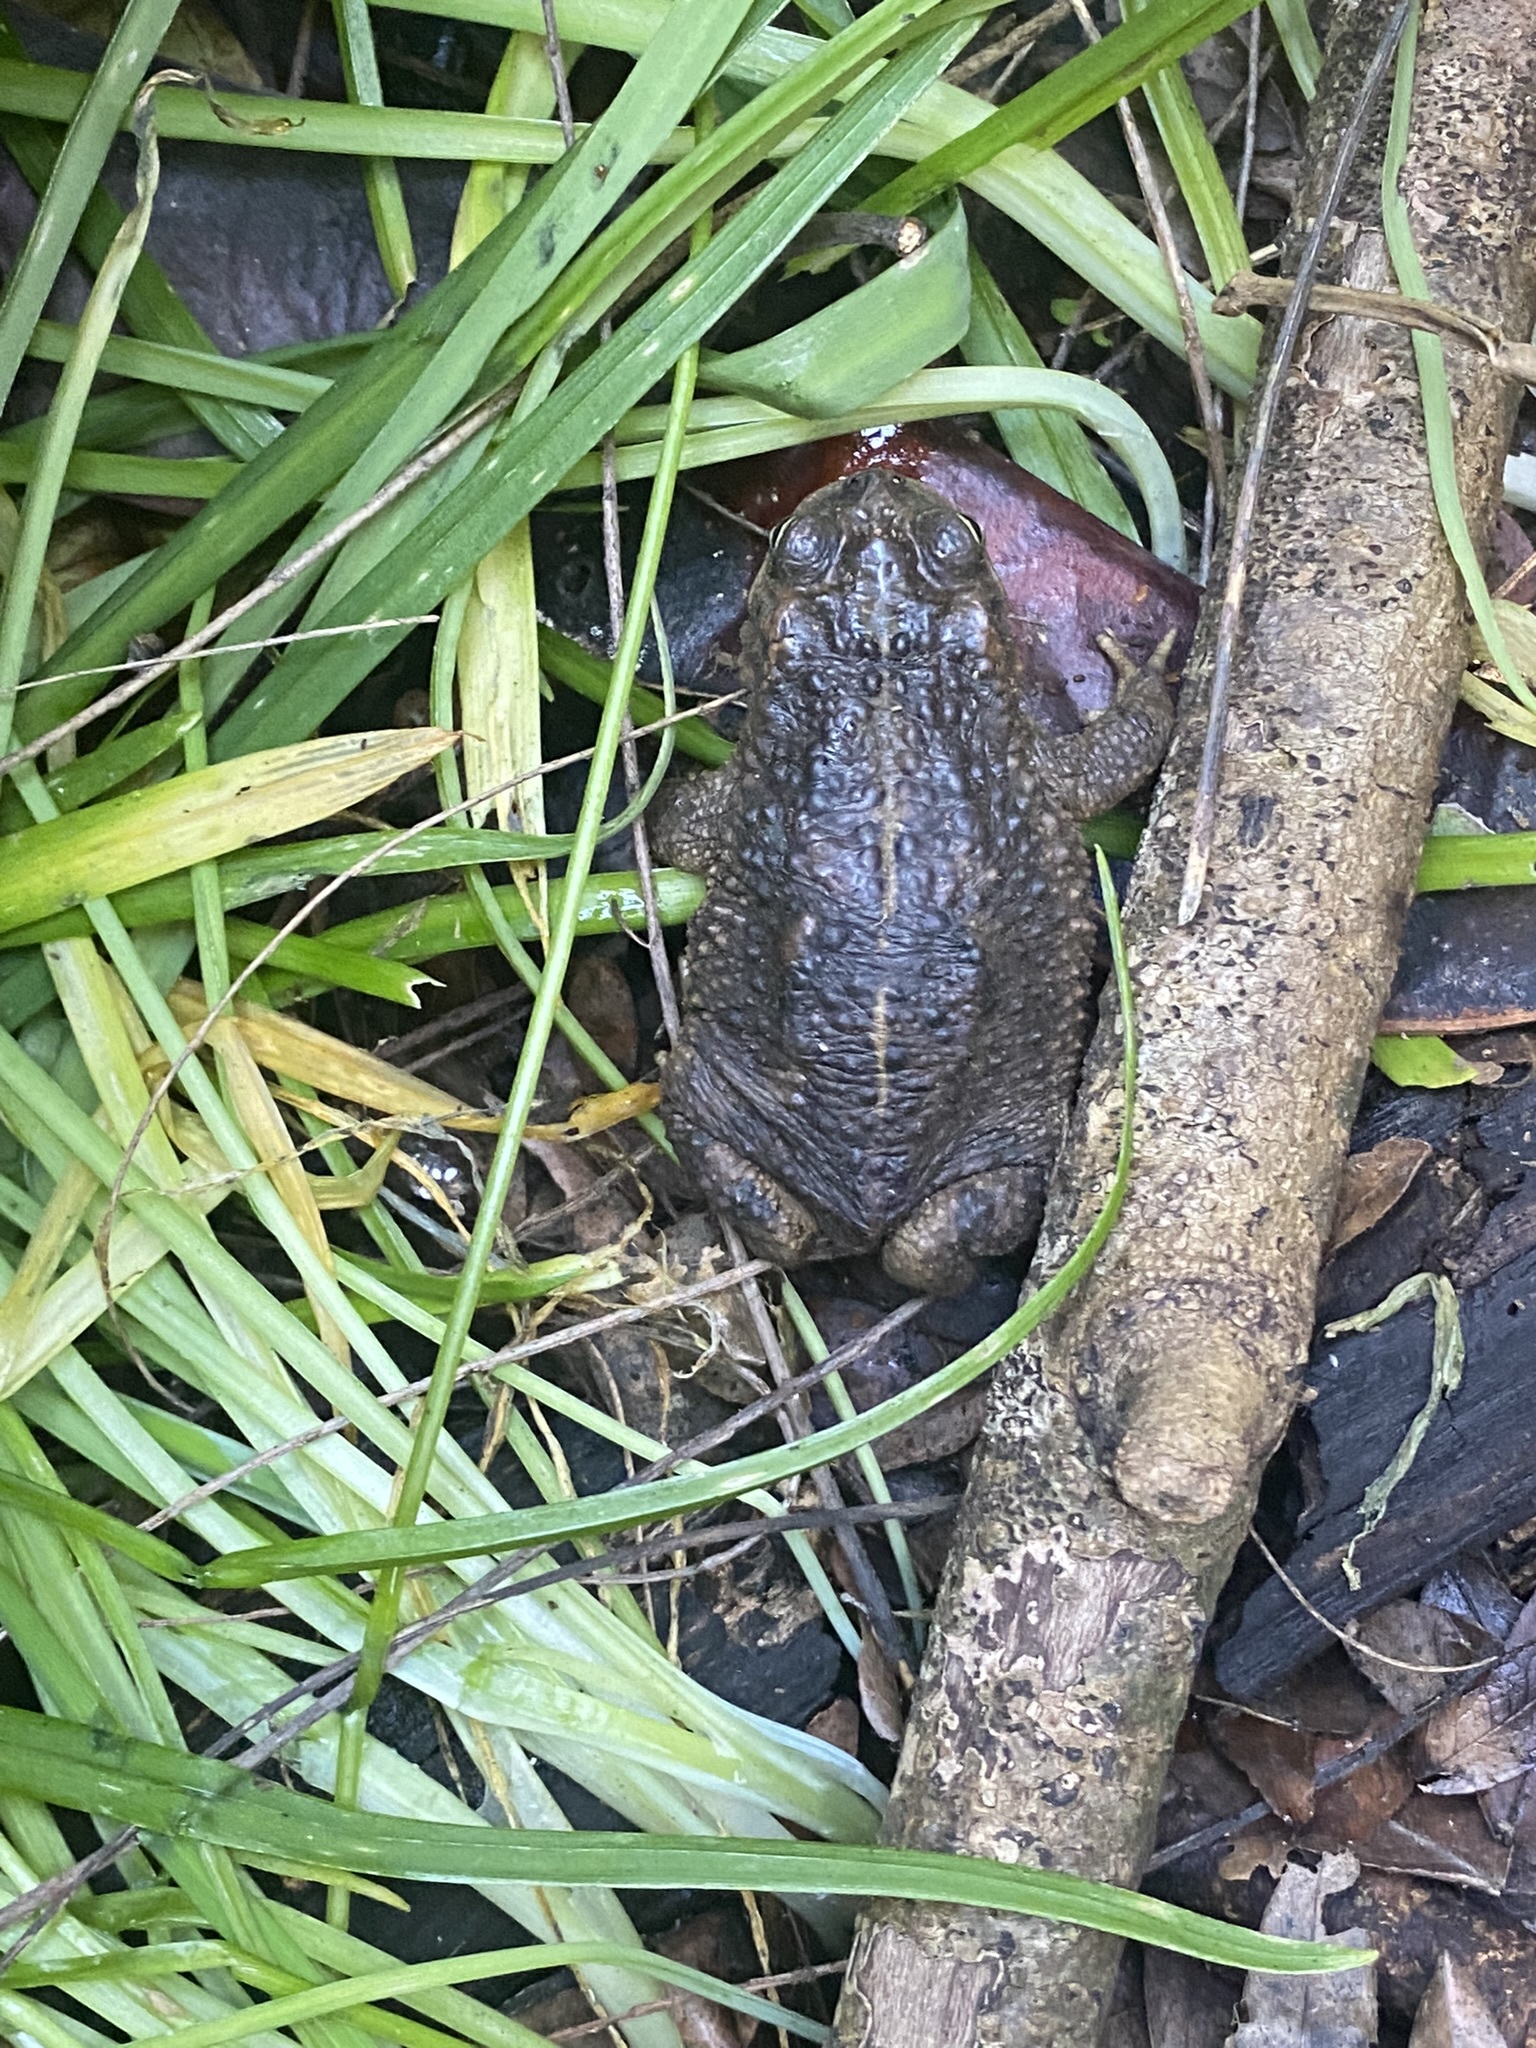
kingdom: Animalia
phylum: Chordata
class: Amphibia
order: Anura
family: Bufonidae
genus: Rhinella
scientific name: Rhinella dorbignyi
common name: D´orbigny’s toad
